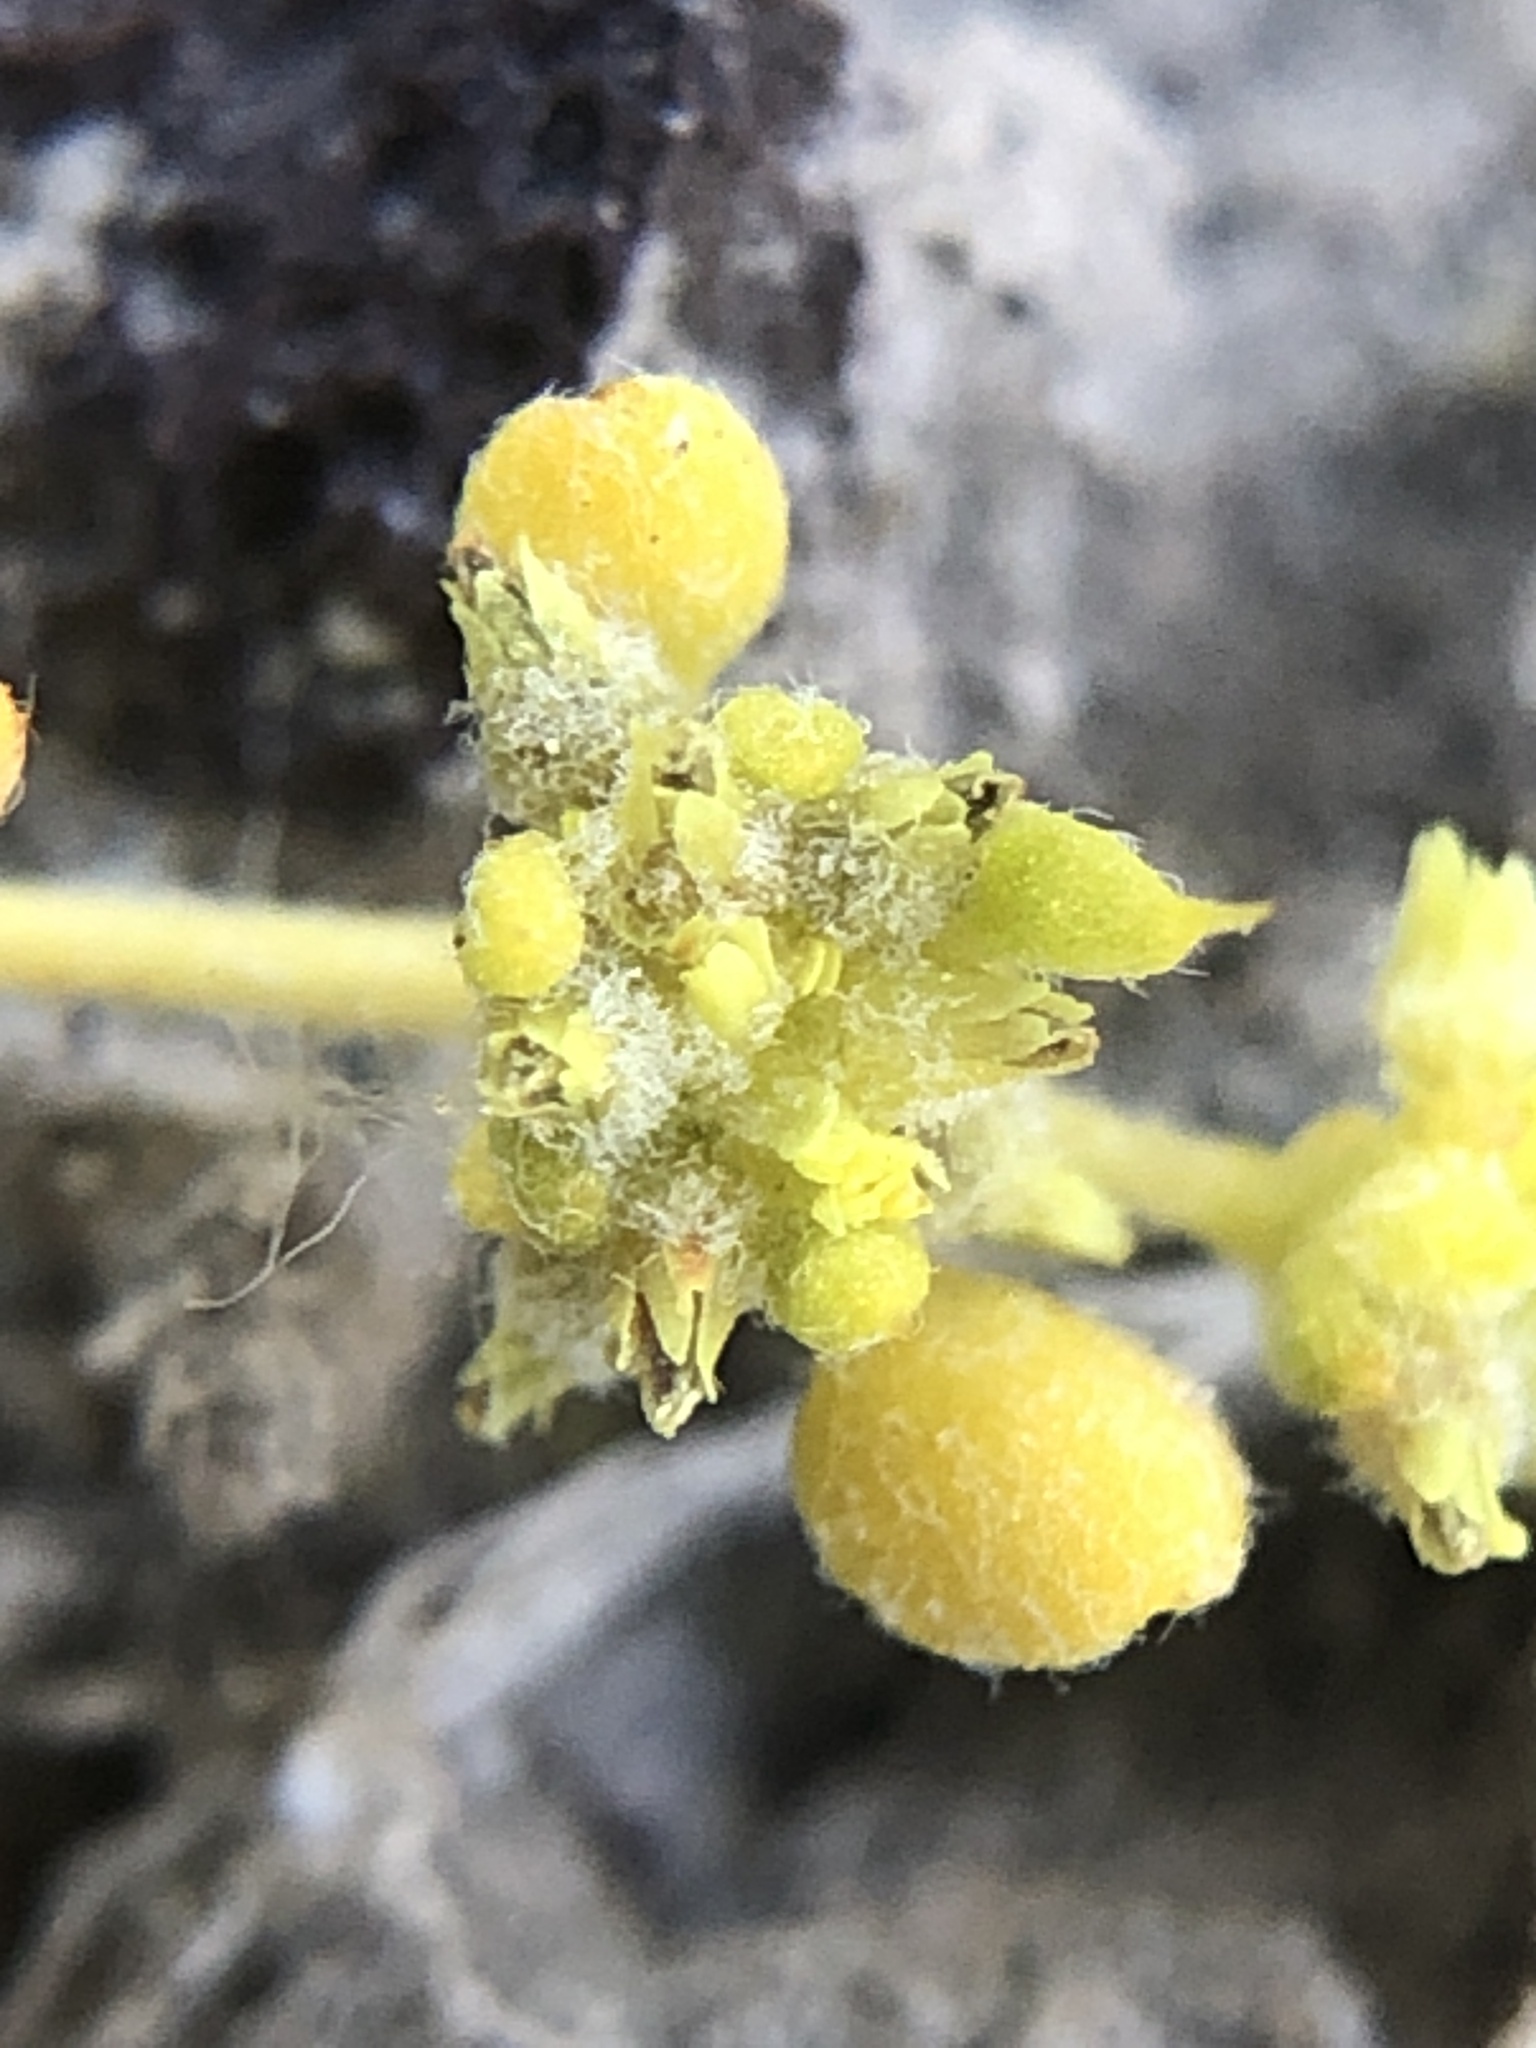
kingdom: Plantae
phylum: Tracheophyta
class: Magnoliopsida
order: Caryophyllales
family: Polygonaceae
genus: Goodmania
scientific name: Goodmania luteola
